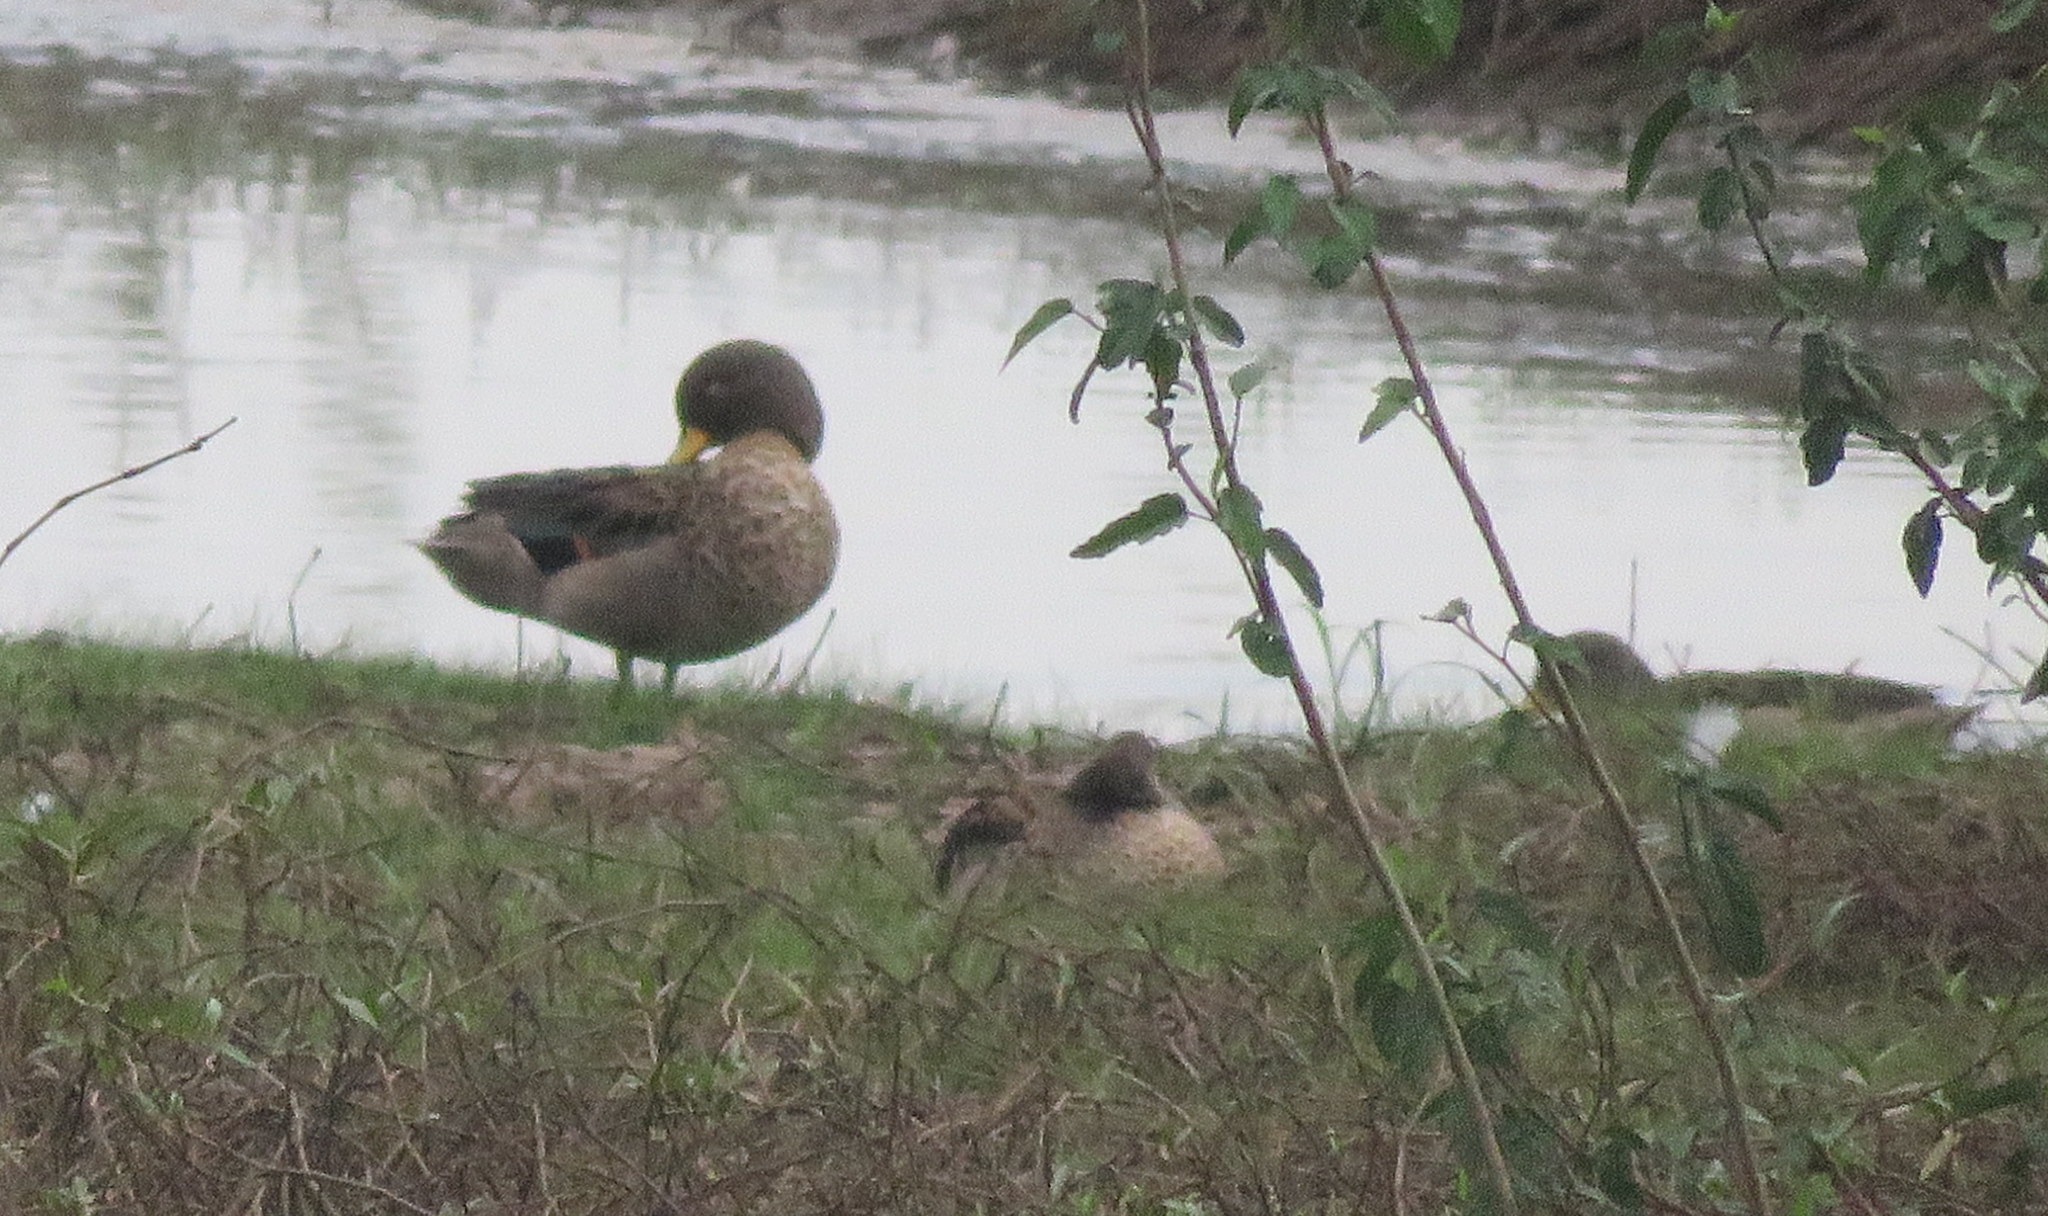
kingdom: Animalia
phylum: Chordata
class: Aves
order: Anseriformes
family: Anatidae
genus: Anas
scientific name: Anas flavirostris
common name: Yellow-billed teal
